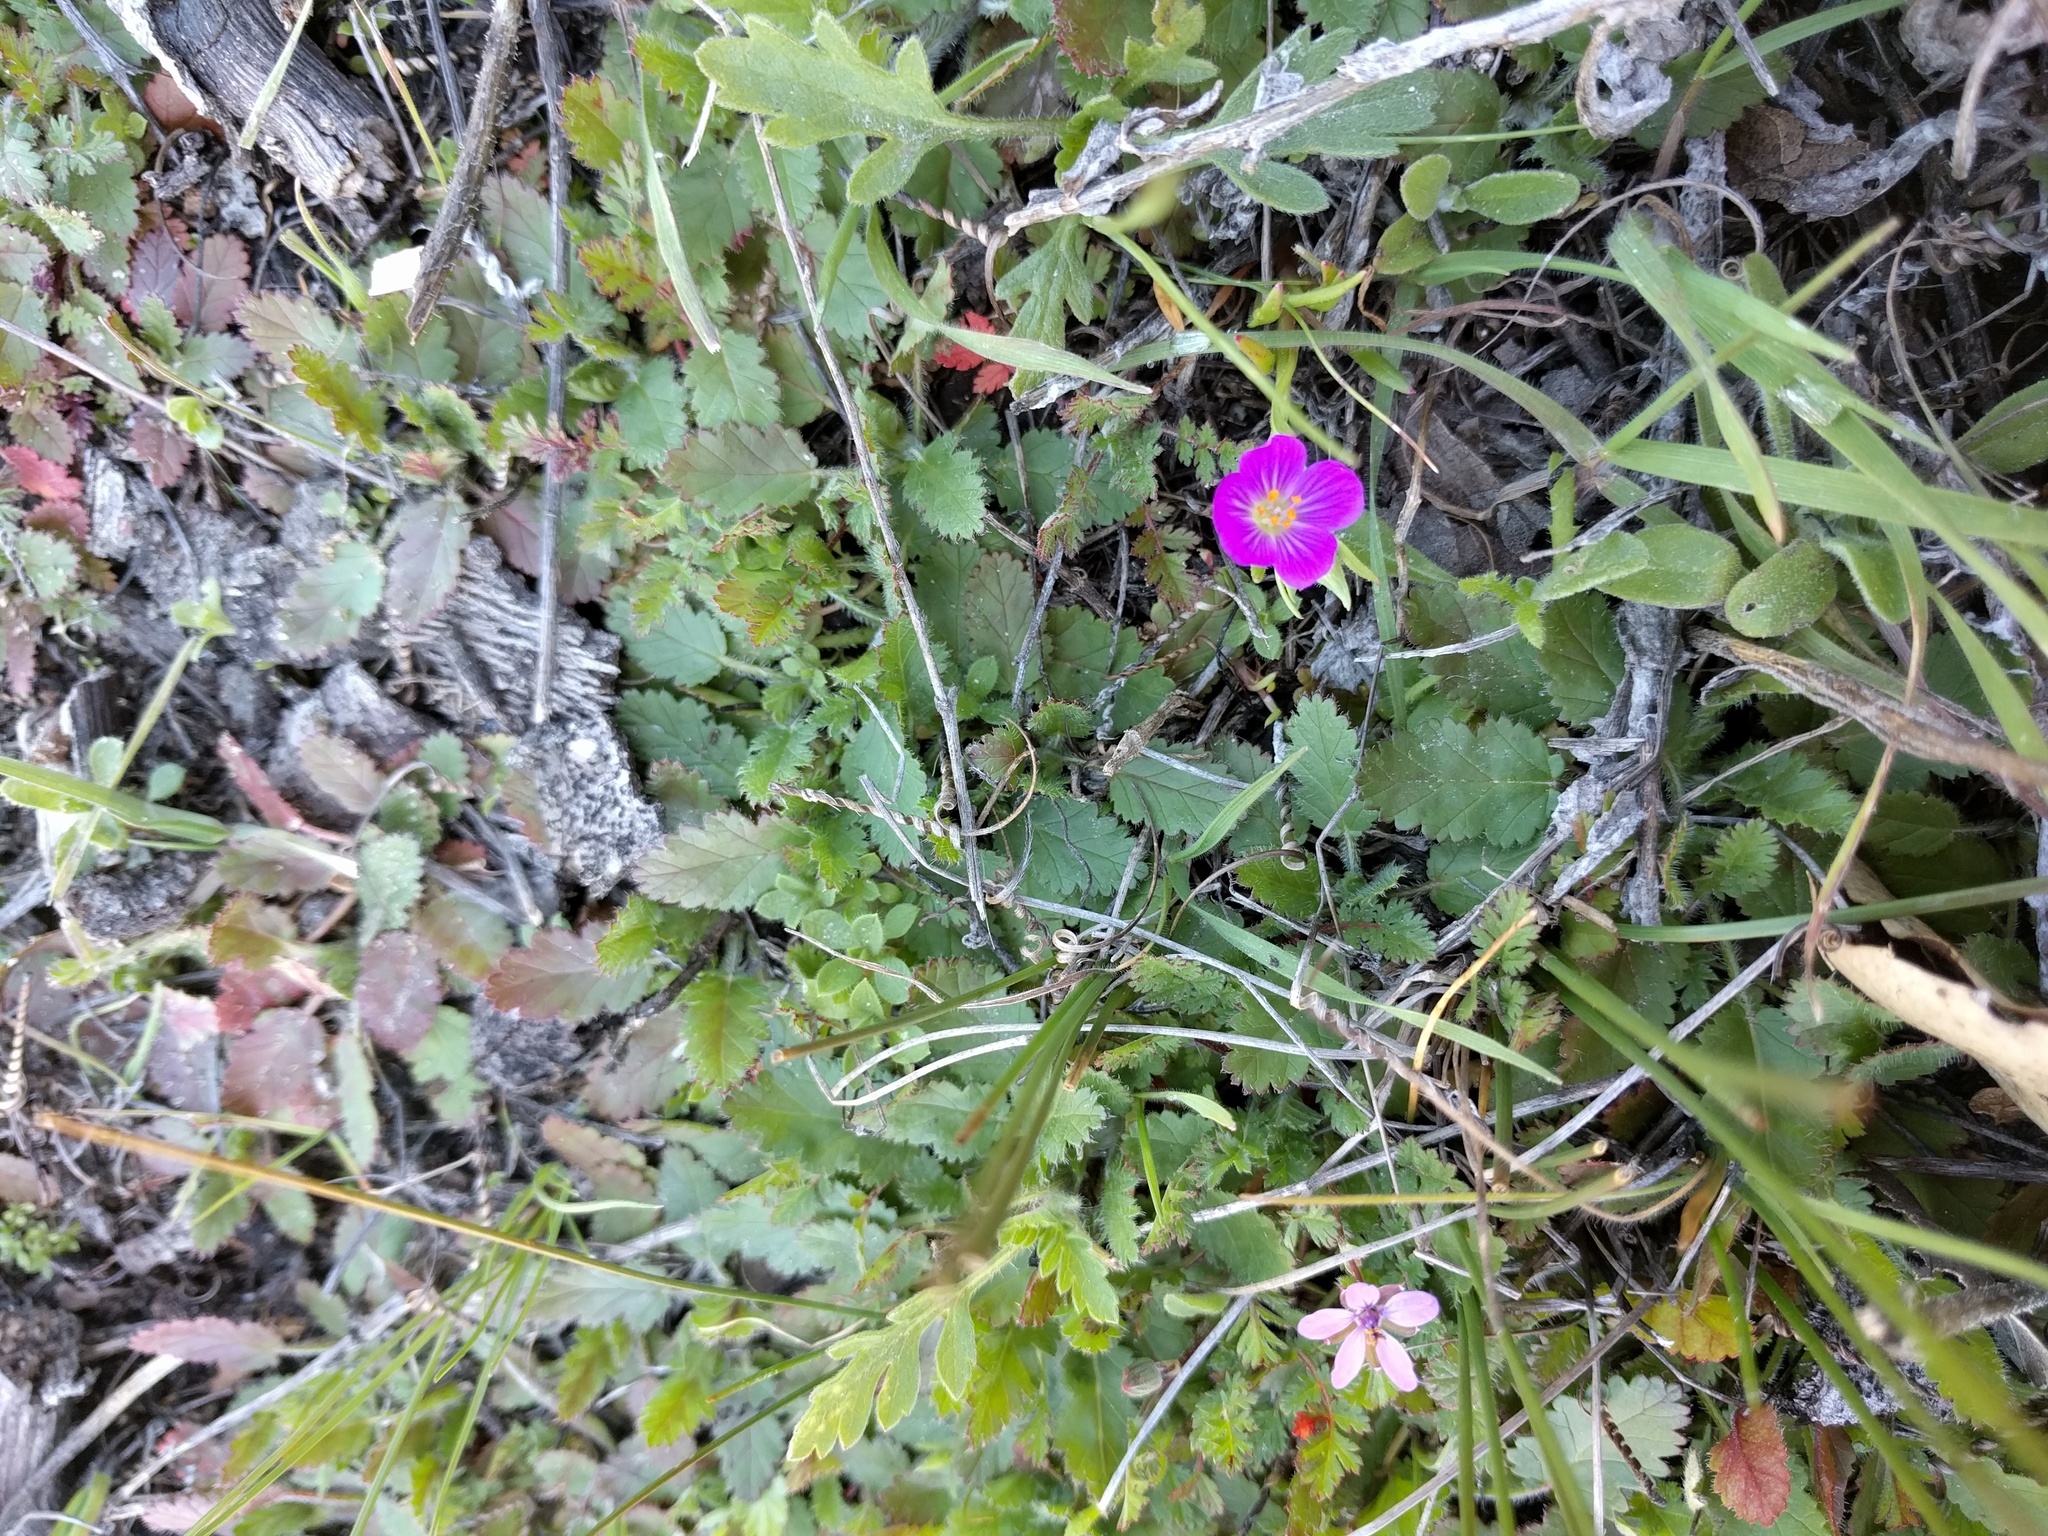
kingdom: Plantae
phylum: Tracheophyta
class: Magnoliopsida
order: Caryophyllales
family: Montiaceae
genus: Calandrinia
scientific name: Calandrinia menziesii
